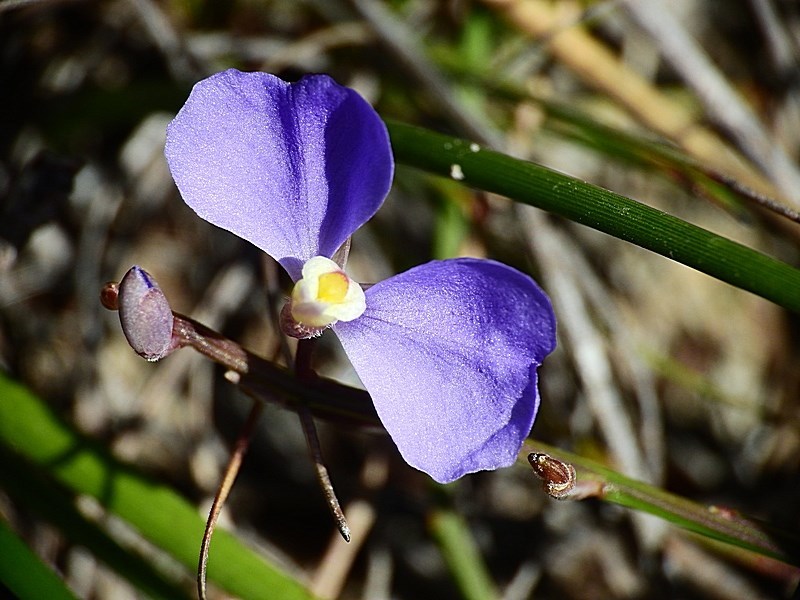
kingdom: Plantae
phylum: Tracheophyta
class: Magnoliopsida
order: Fabales
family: Polygalaceae
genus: Comesperma
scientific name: Comesperma sphaerocarpum
